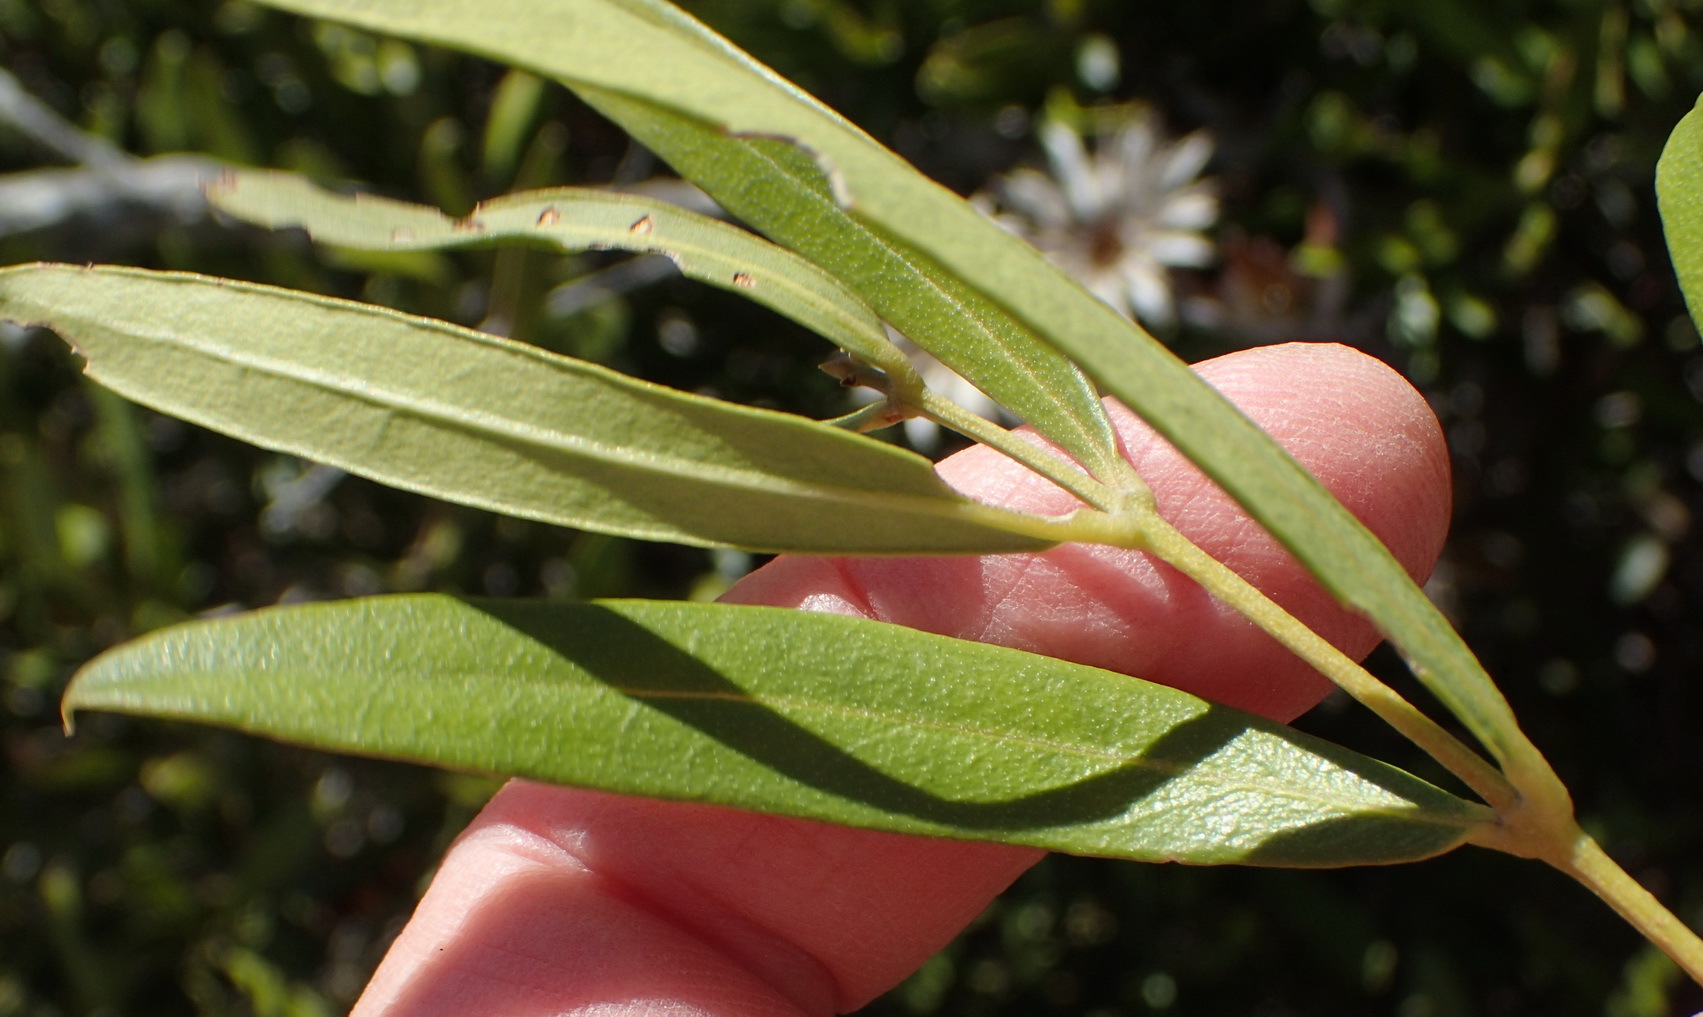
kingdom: Plantae
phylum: Tracheophyta
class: Magnoliopsida
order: Lamiales
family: Oleaceae
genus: Olea
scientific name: Olea exasperata
